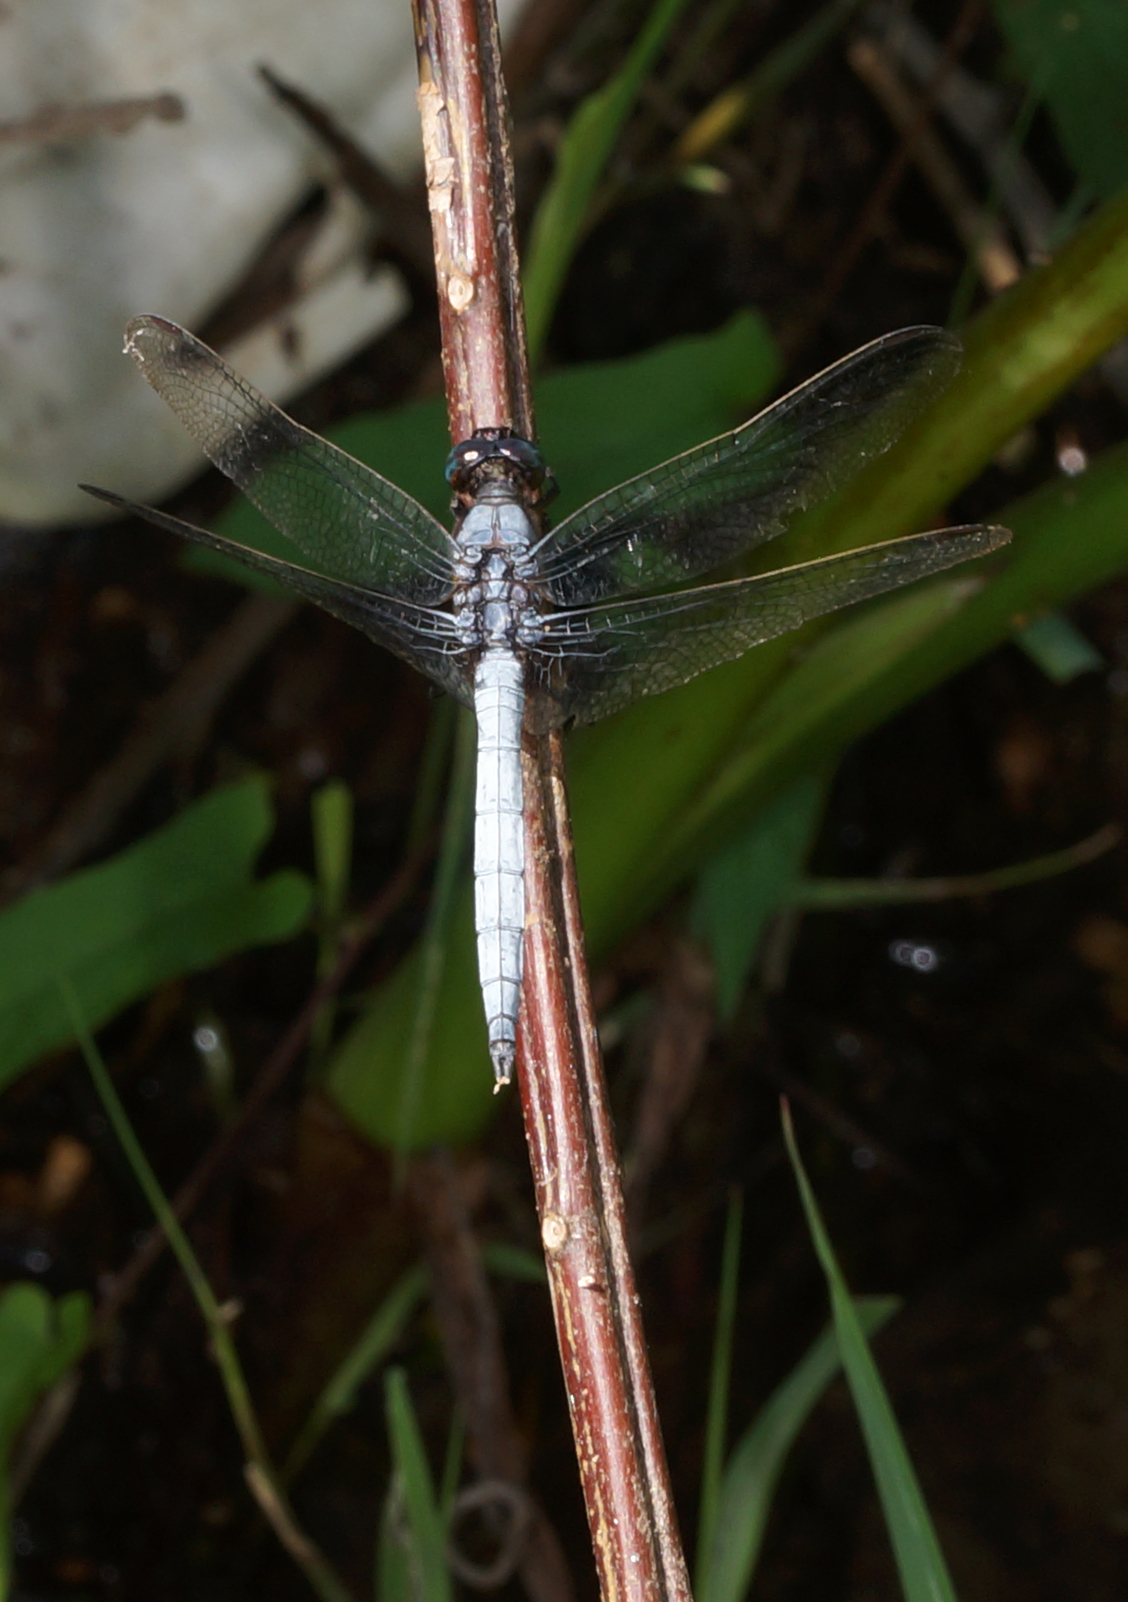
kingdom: Animalia
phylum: Arthropoda
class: Insecta
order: Odonata
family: Libellulidae
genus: Orthetrum
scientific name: Orthetrum luzonicum
